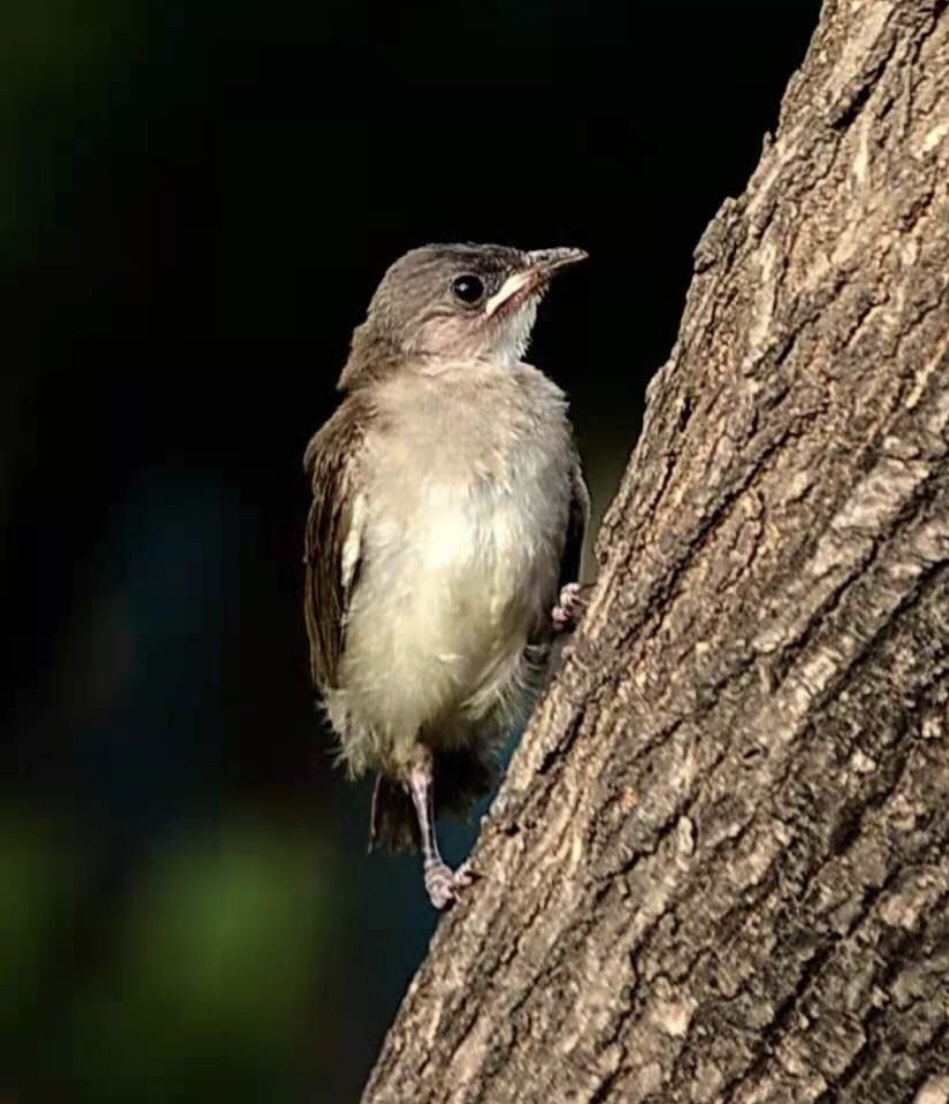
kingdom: Animalia
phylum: Chordata
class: Aves
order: Passeriformes
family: Pycnonotidae
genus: Pycnonotus
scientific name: Pycnonotus sinensis
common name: Light-vented bulbul
